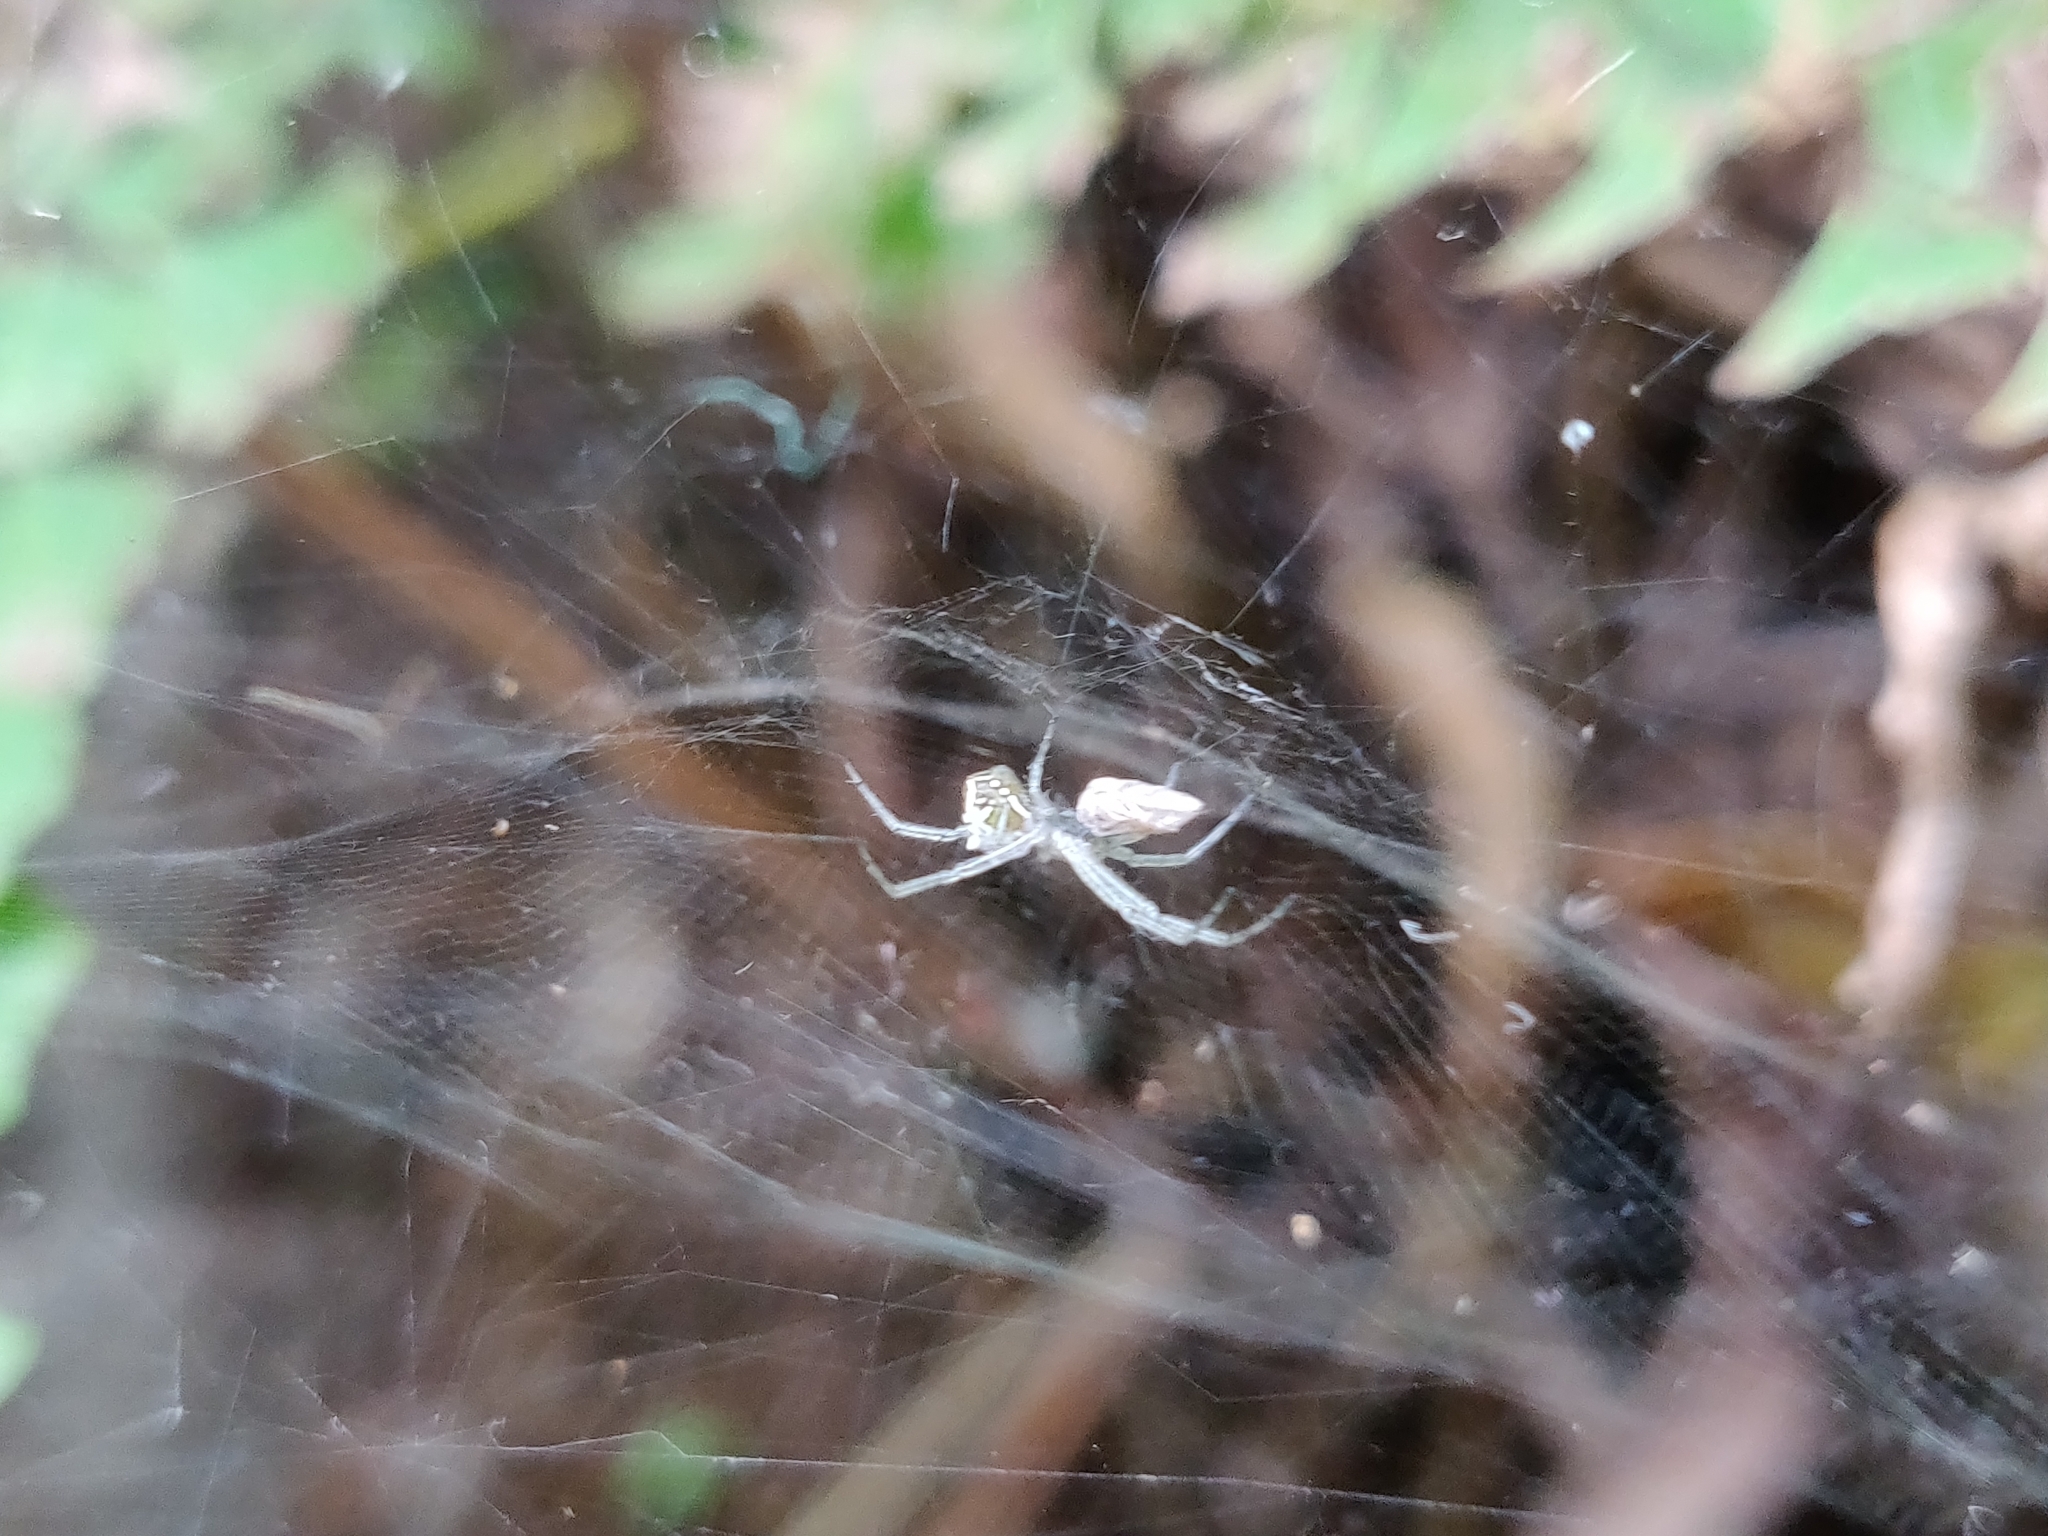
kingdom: Animalia
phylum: Arthropoda
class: Arachnida
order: Araneae
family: Araneidae
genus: Cyrtophora
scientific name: Cyrtophora cicatrosa
